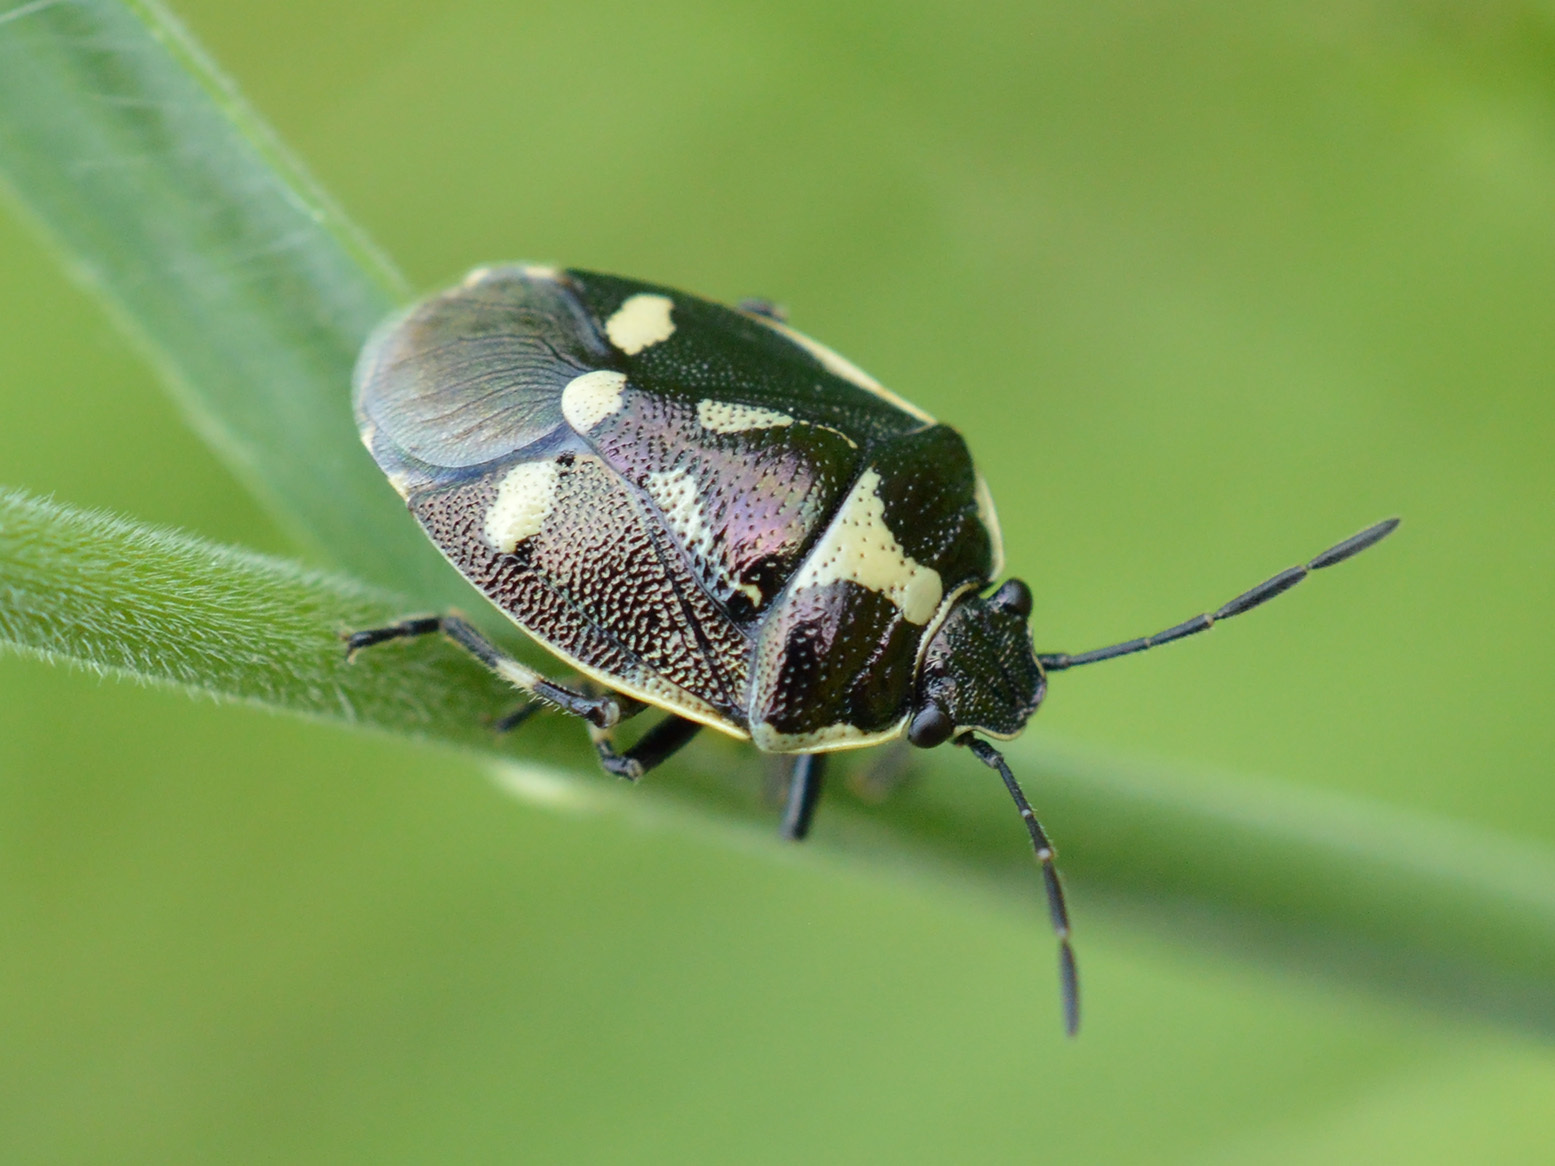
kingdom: Animalia
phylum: Arthropoda
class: Insecta
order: Hemiptera
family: Pentatomidae
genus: Eurydema
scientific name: Eurydema oleracea
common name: Cabbage bug
